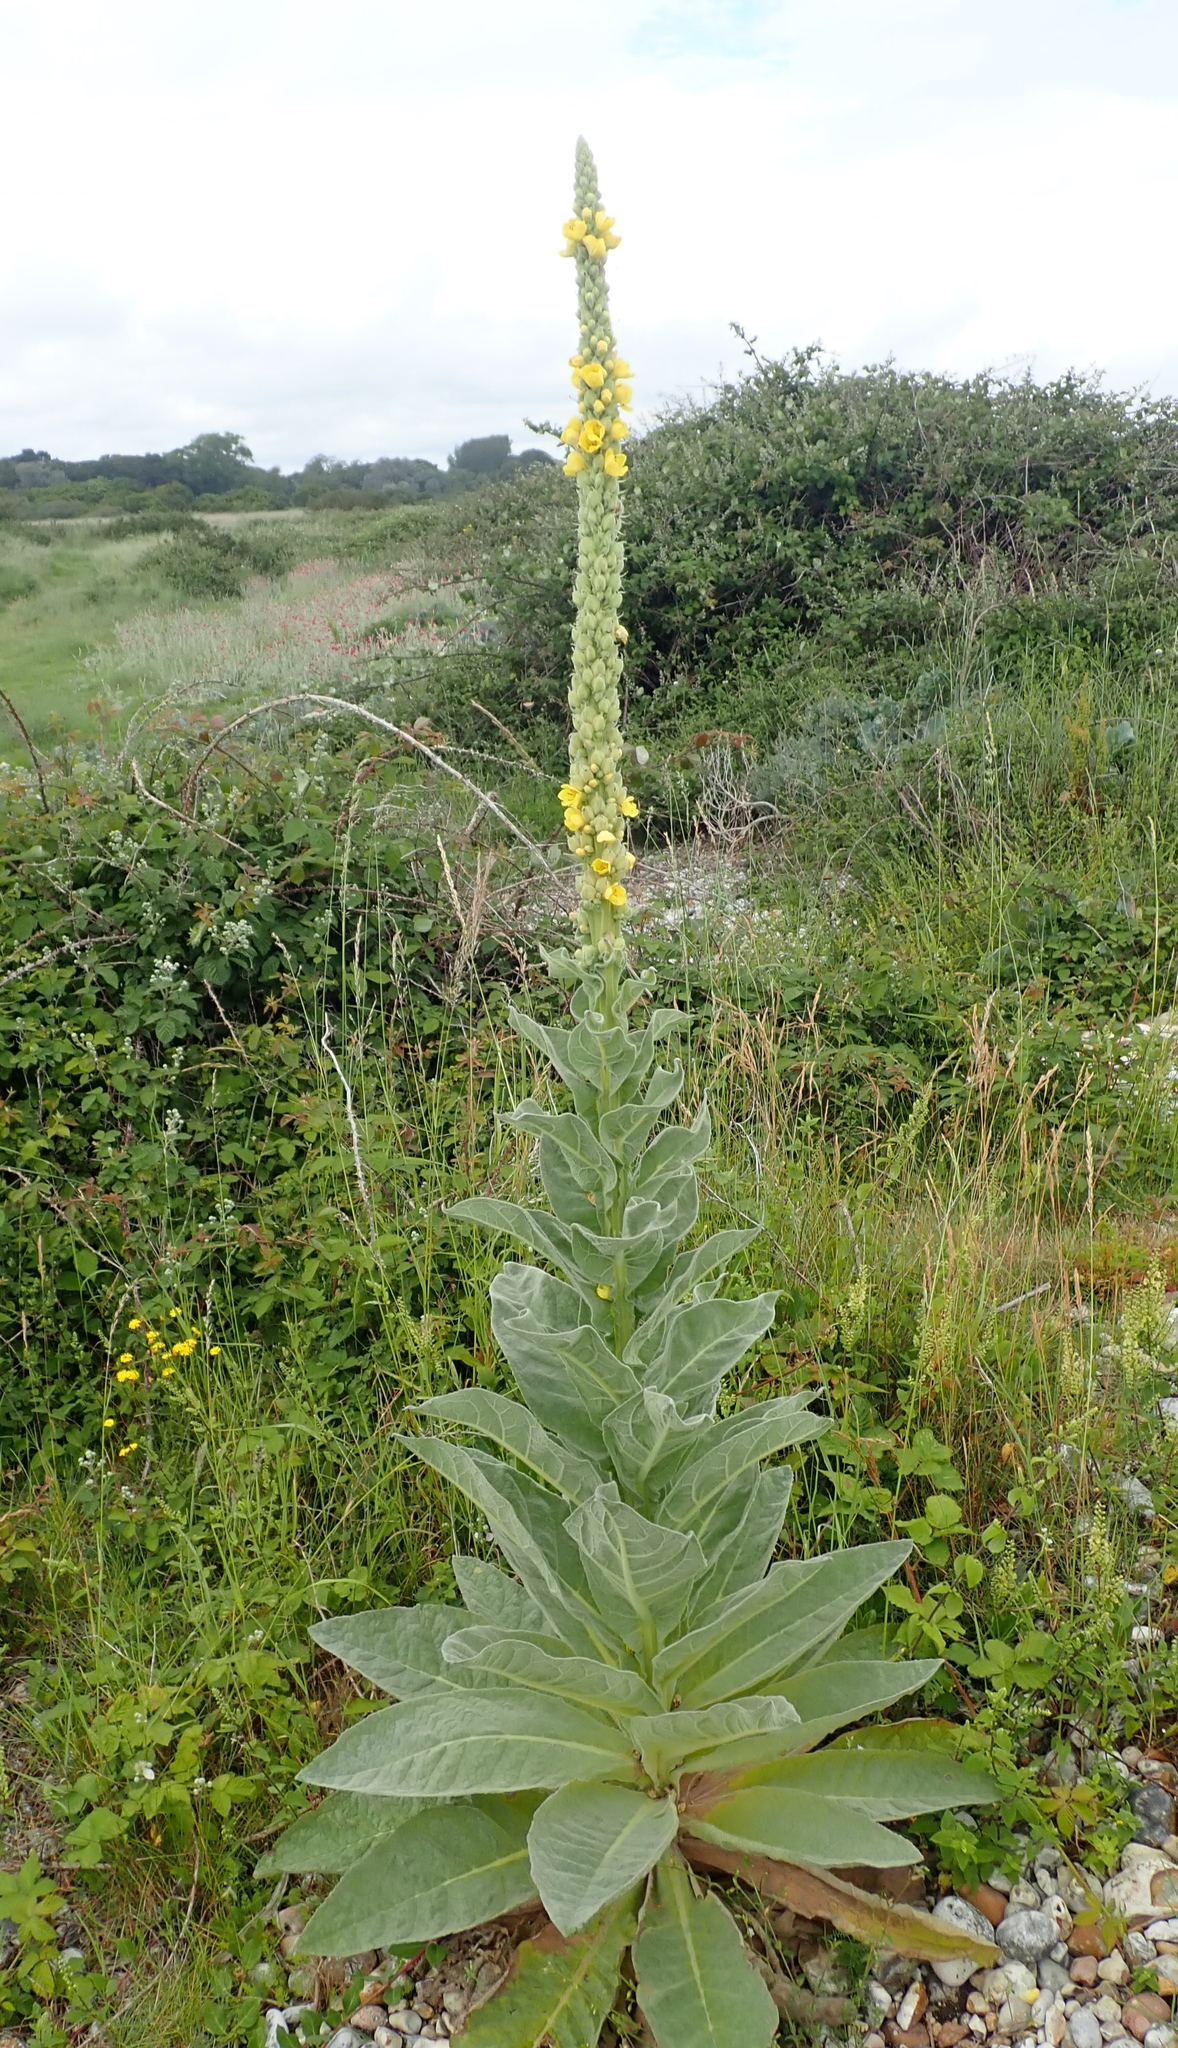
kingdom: Plantae
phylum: Tracheophyta
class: Magnoliopsida
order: Lamiales
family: Scrophulariaceae
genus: Verbascum
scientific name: Verbascum thapsus
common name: Common mullein
